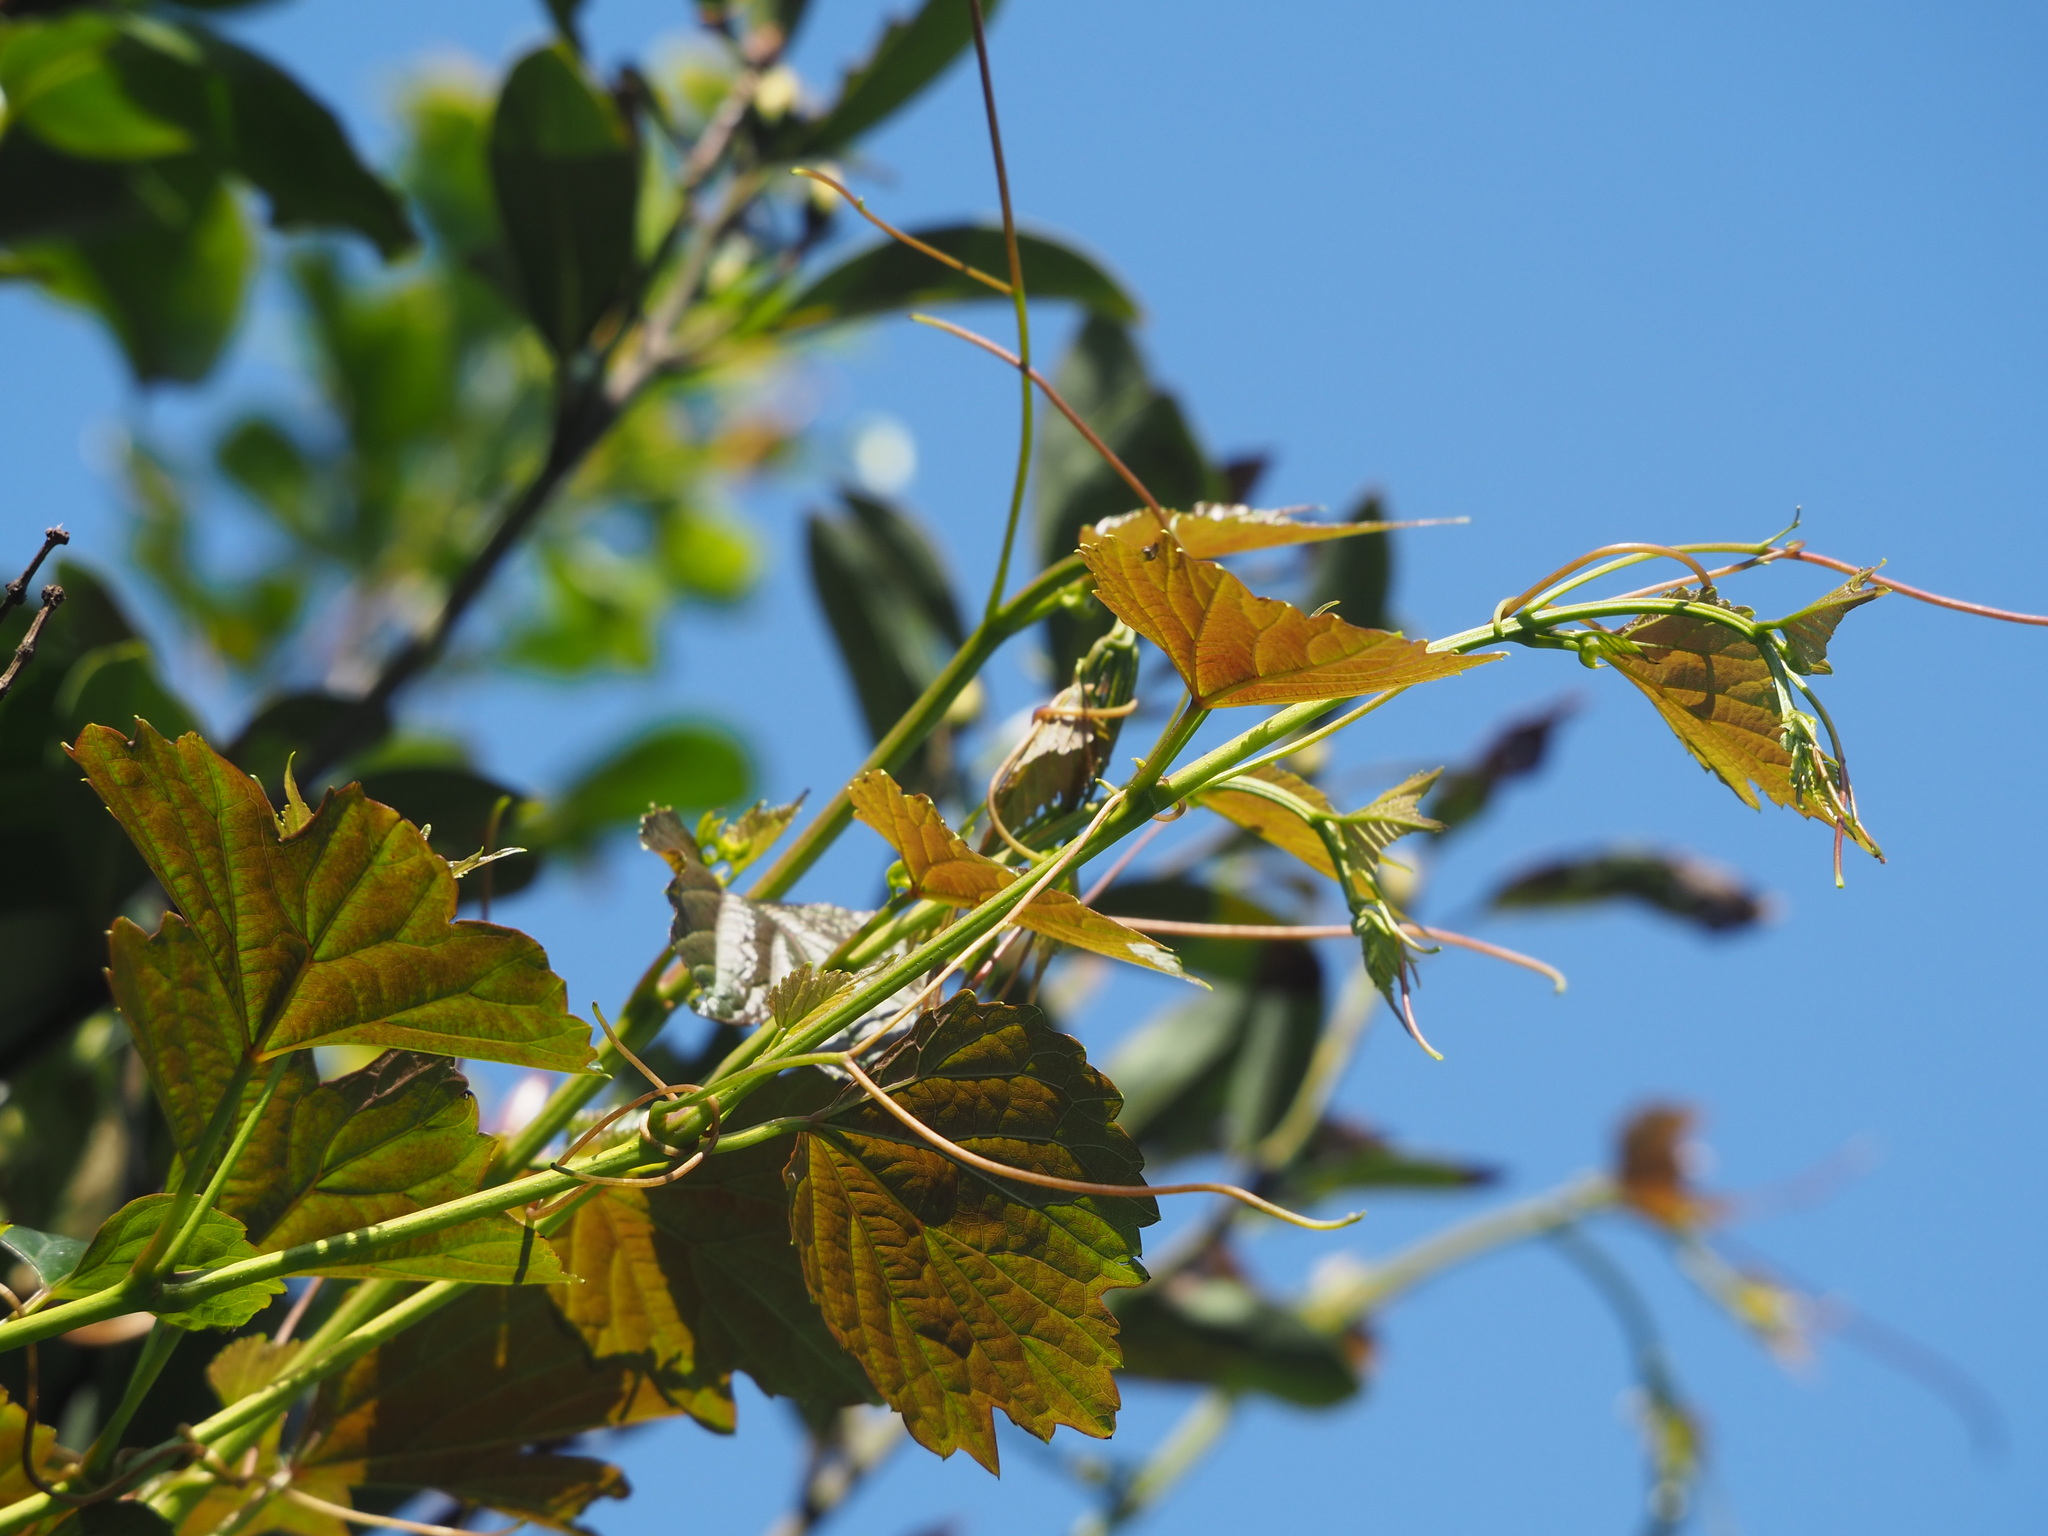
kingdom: Plantae
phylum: Tracheophyta
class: Magnoliopsida
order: Vitales
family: Vitaceae
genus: Ampelopsis
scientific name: Ampelopsis glandulosa
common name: Amur peppervine
